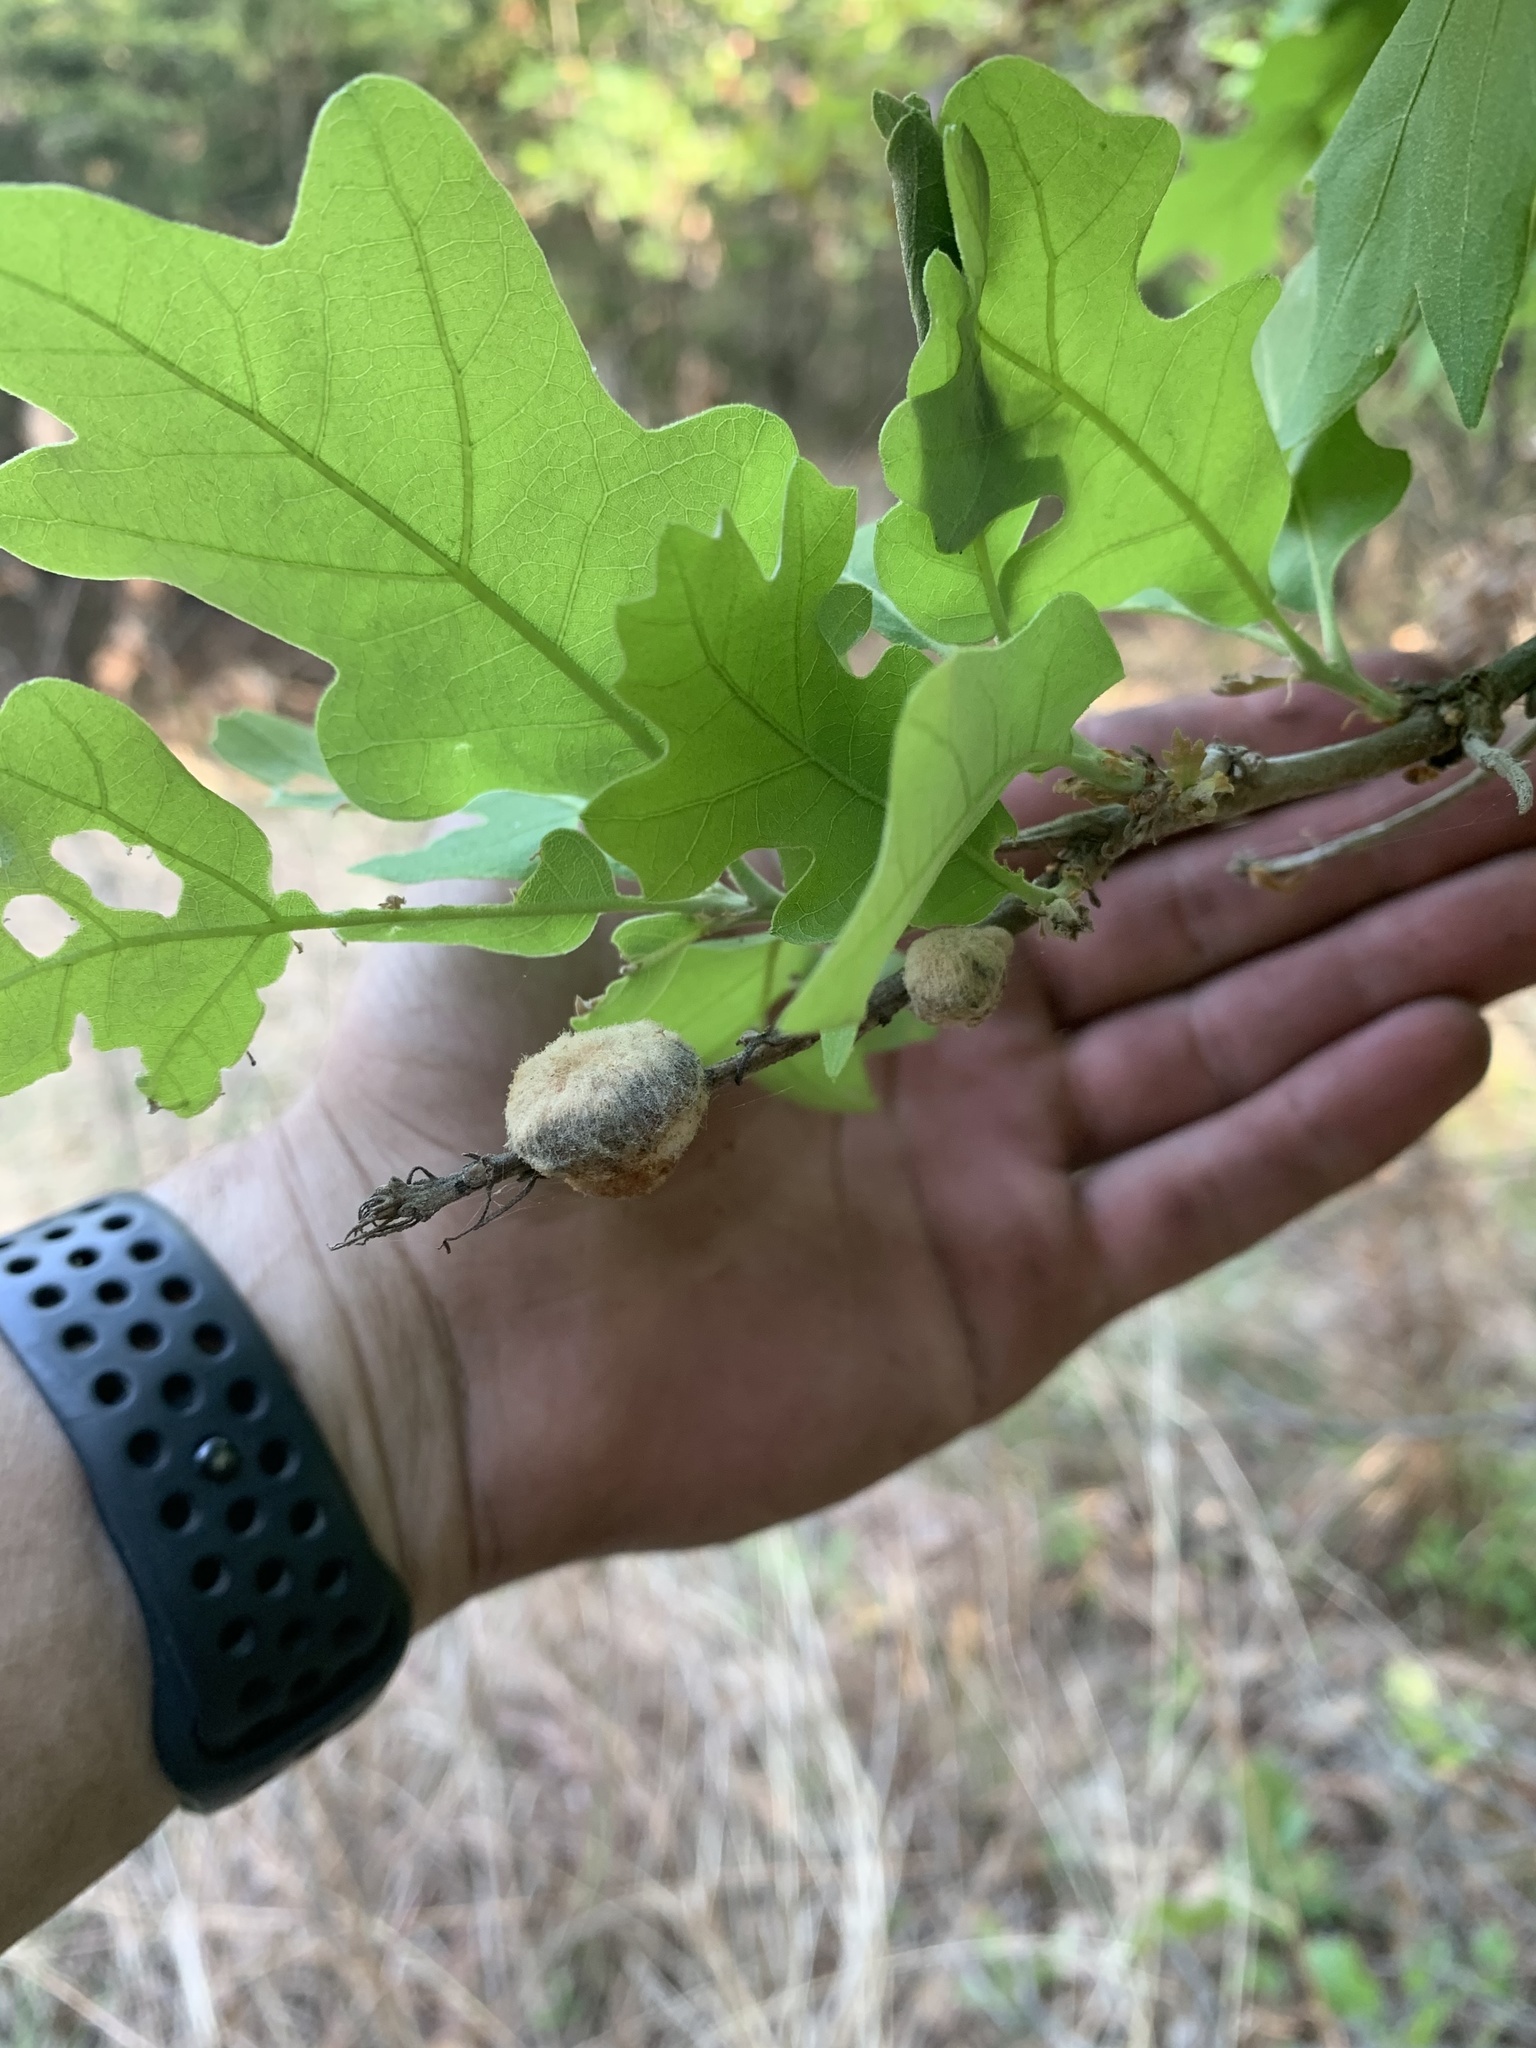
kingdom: Animalia
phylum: Arthropoda
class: Insecta
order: Hymenoptera
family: Cynipidae
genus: Striatoandricus
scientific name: Striatoandricus aciculatus
